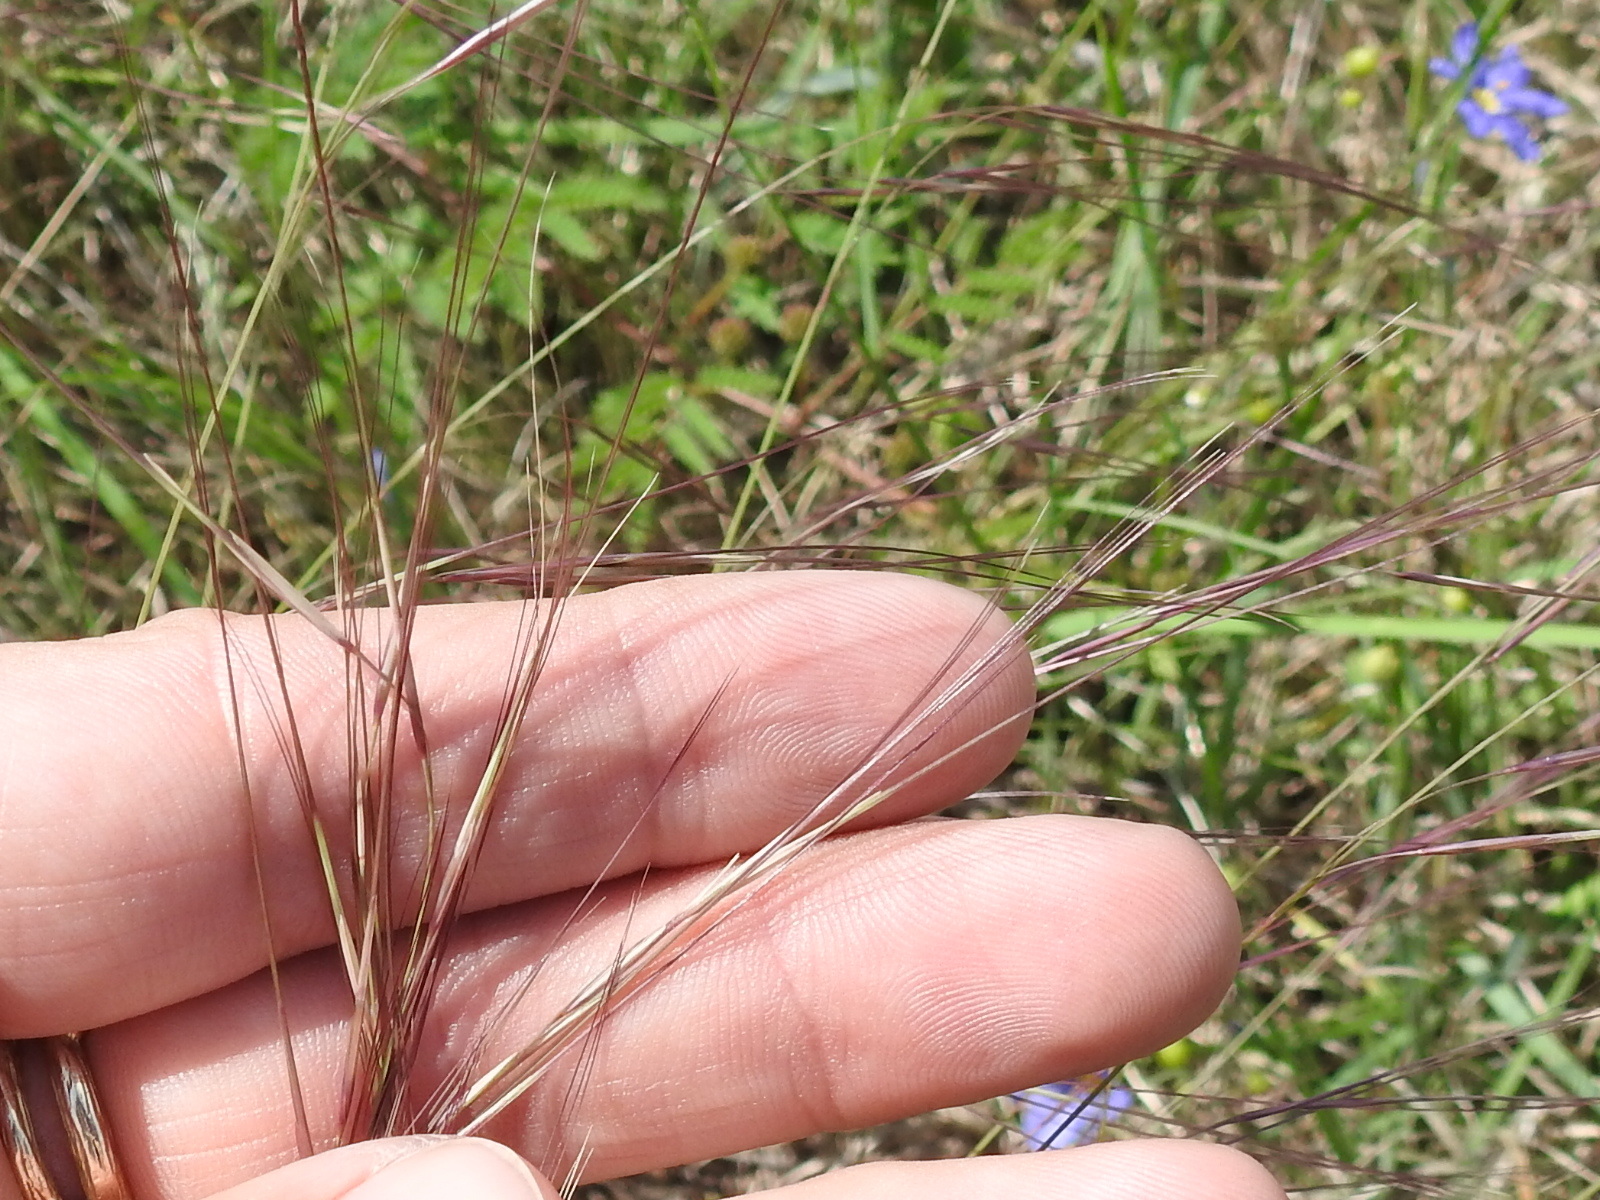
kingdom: Plantae
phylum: Tracheophyta
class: Liliopsida
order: Poales
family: Poaceae
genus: Aristida
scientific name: Aristida purpurea
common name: Purple threeawn
